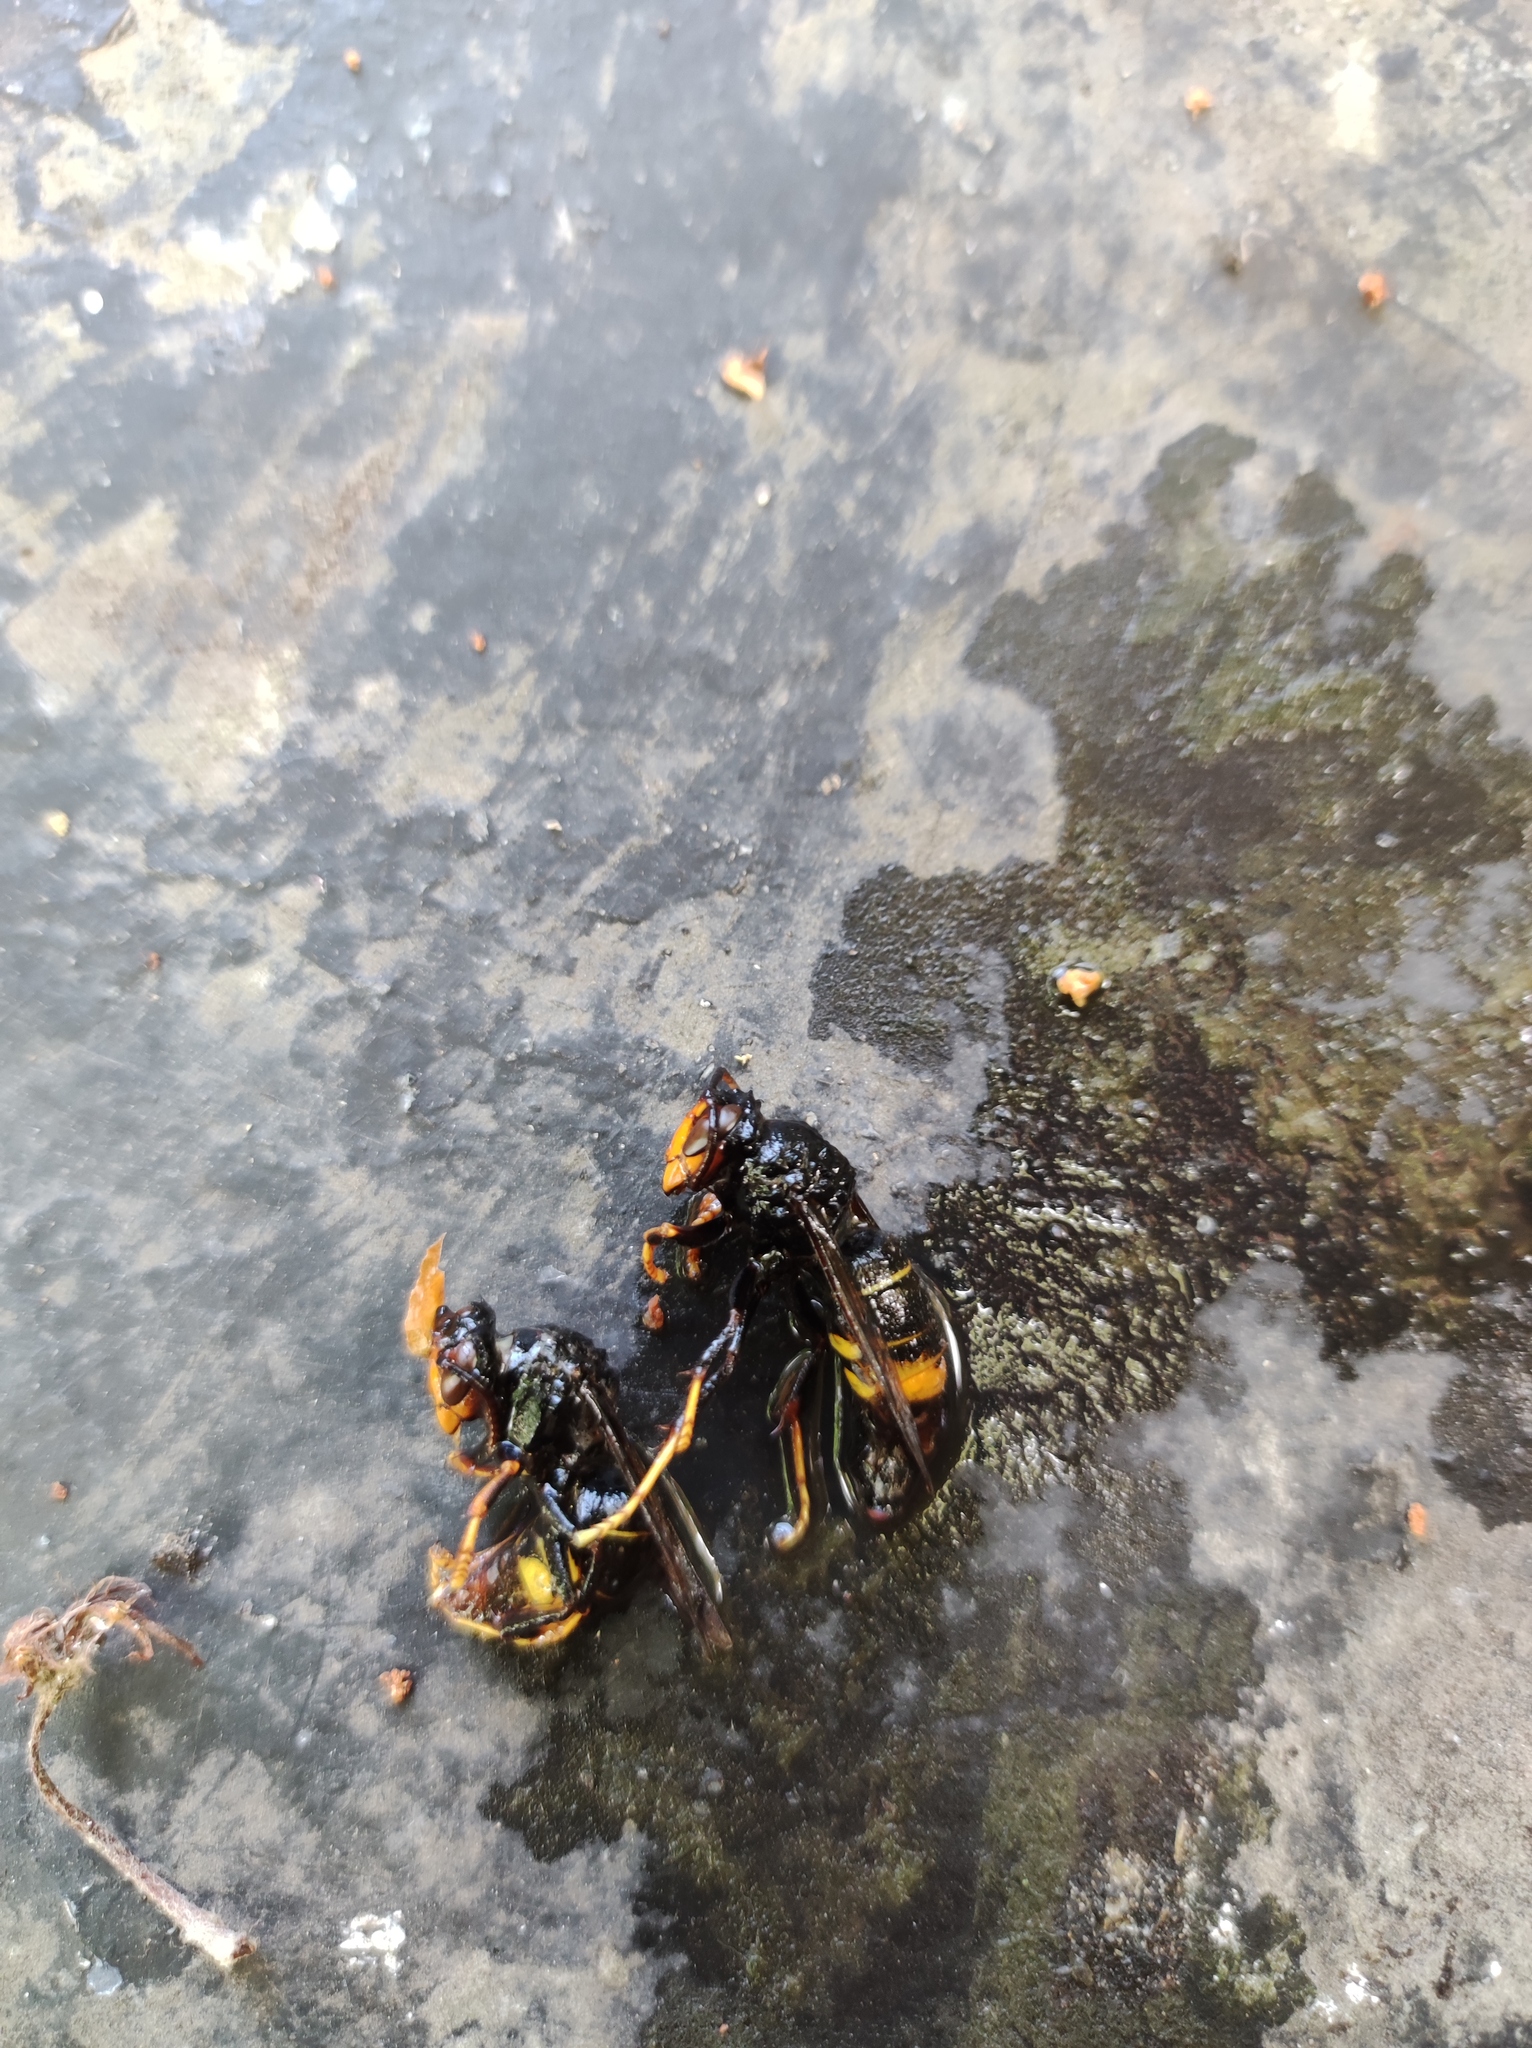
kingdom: Animalia
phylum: Arthropoda
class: Insecta
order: Hymenoptera
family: Vespidae
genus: Vespa
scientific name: Vespa velutina
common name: Asian hornet
